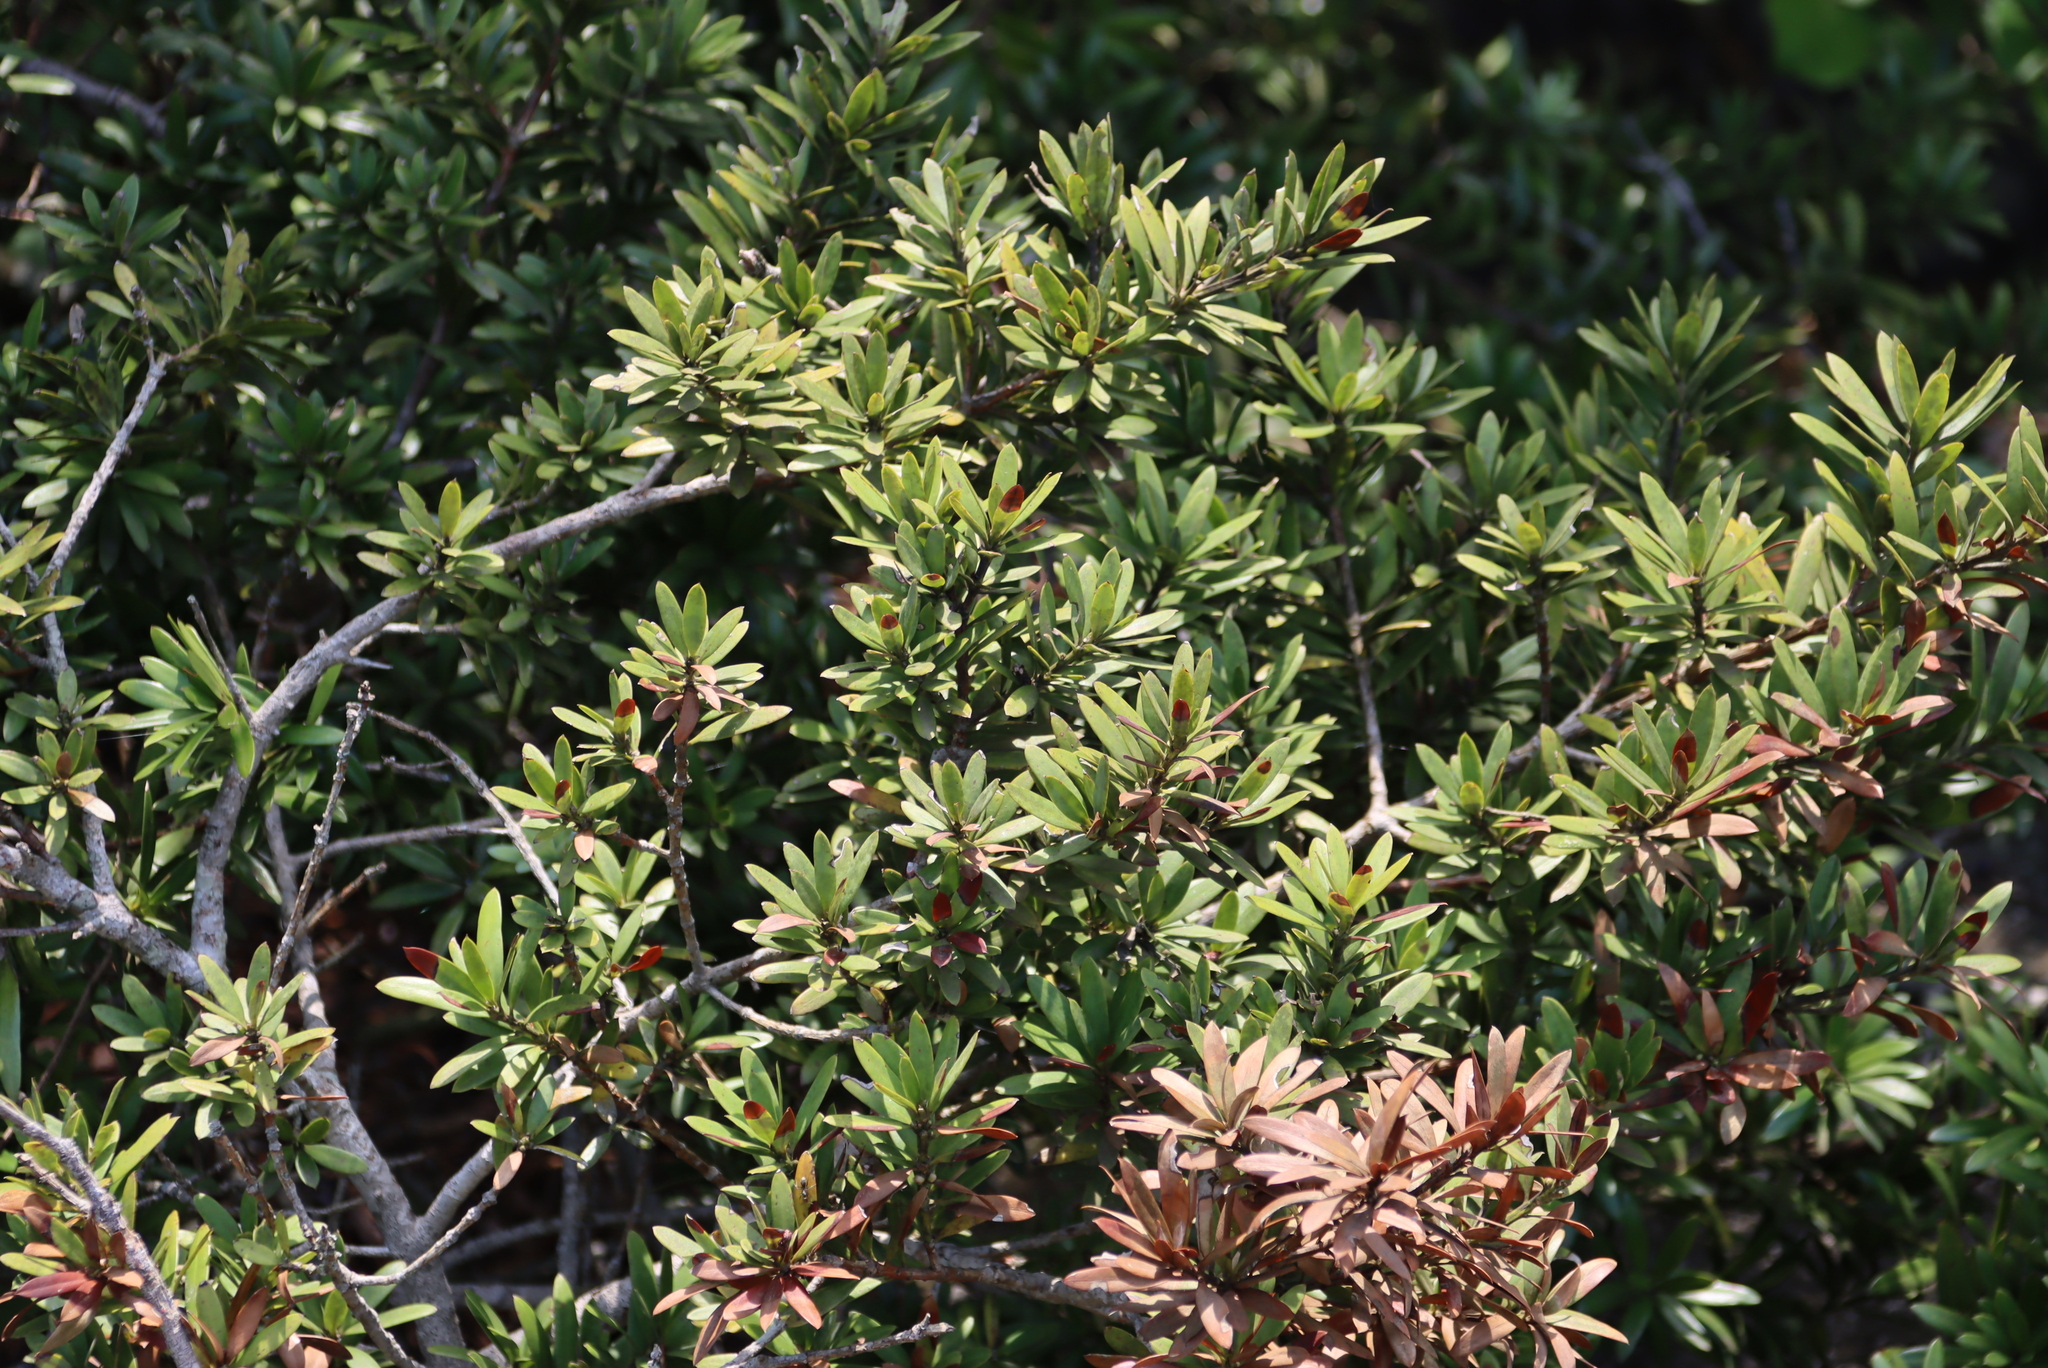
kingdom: Plantae
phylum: Tracheophyta
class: Pinopsida
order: Pinales
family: Podocarpaceae
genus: Podocarpus
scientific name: Podocarpus latifolius
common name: True yellowwood
